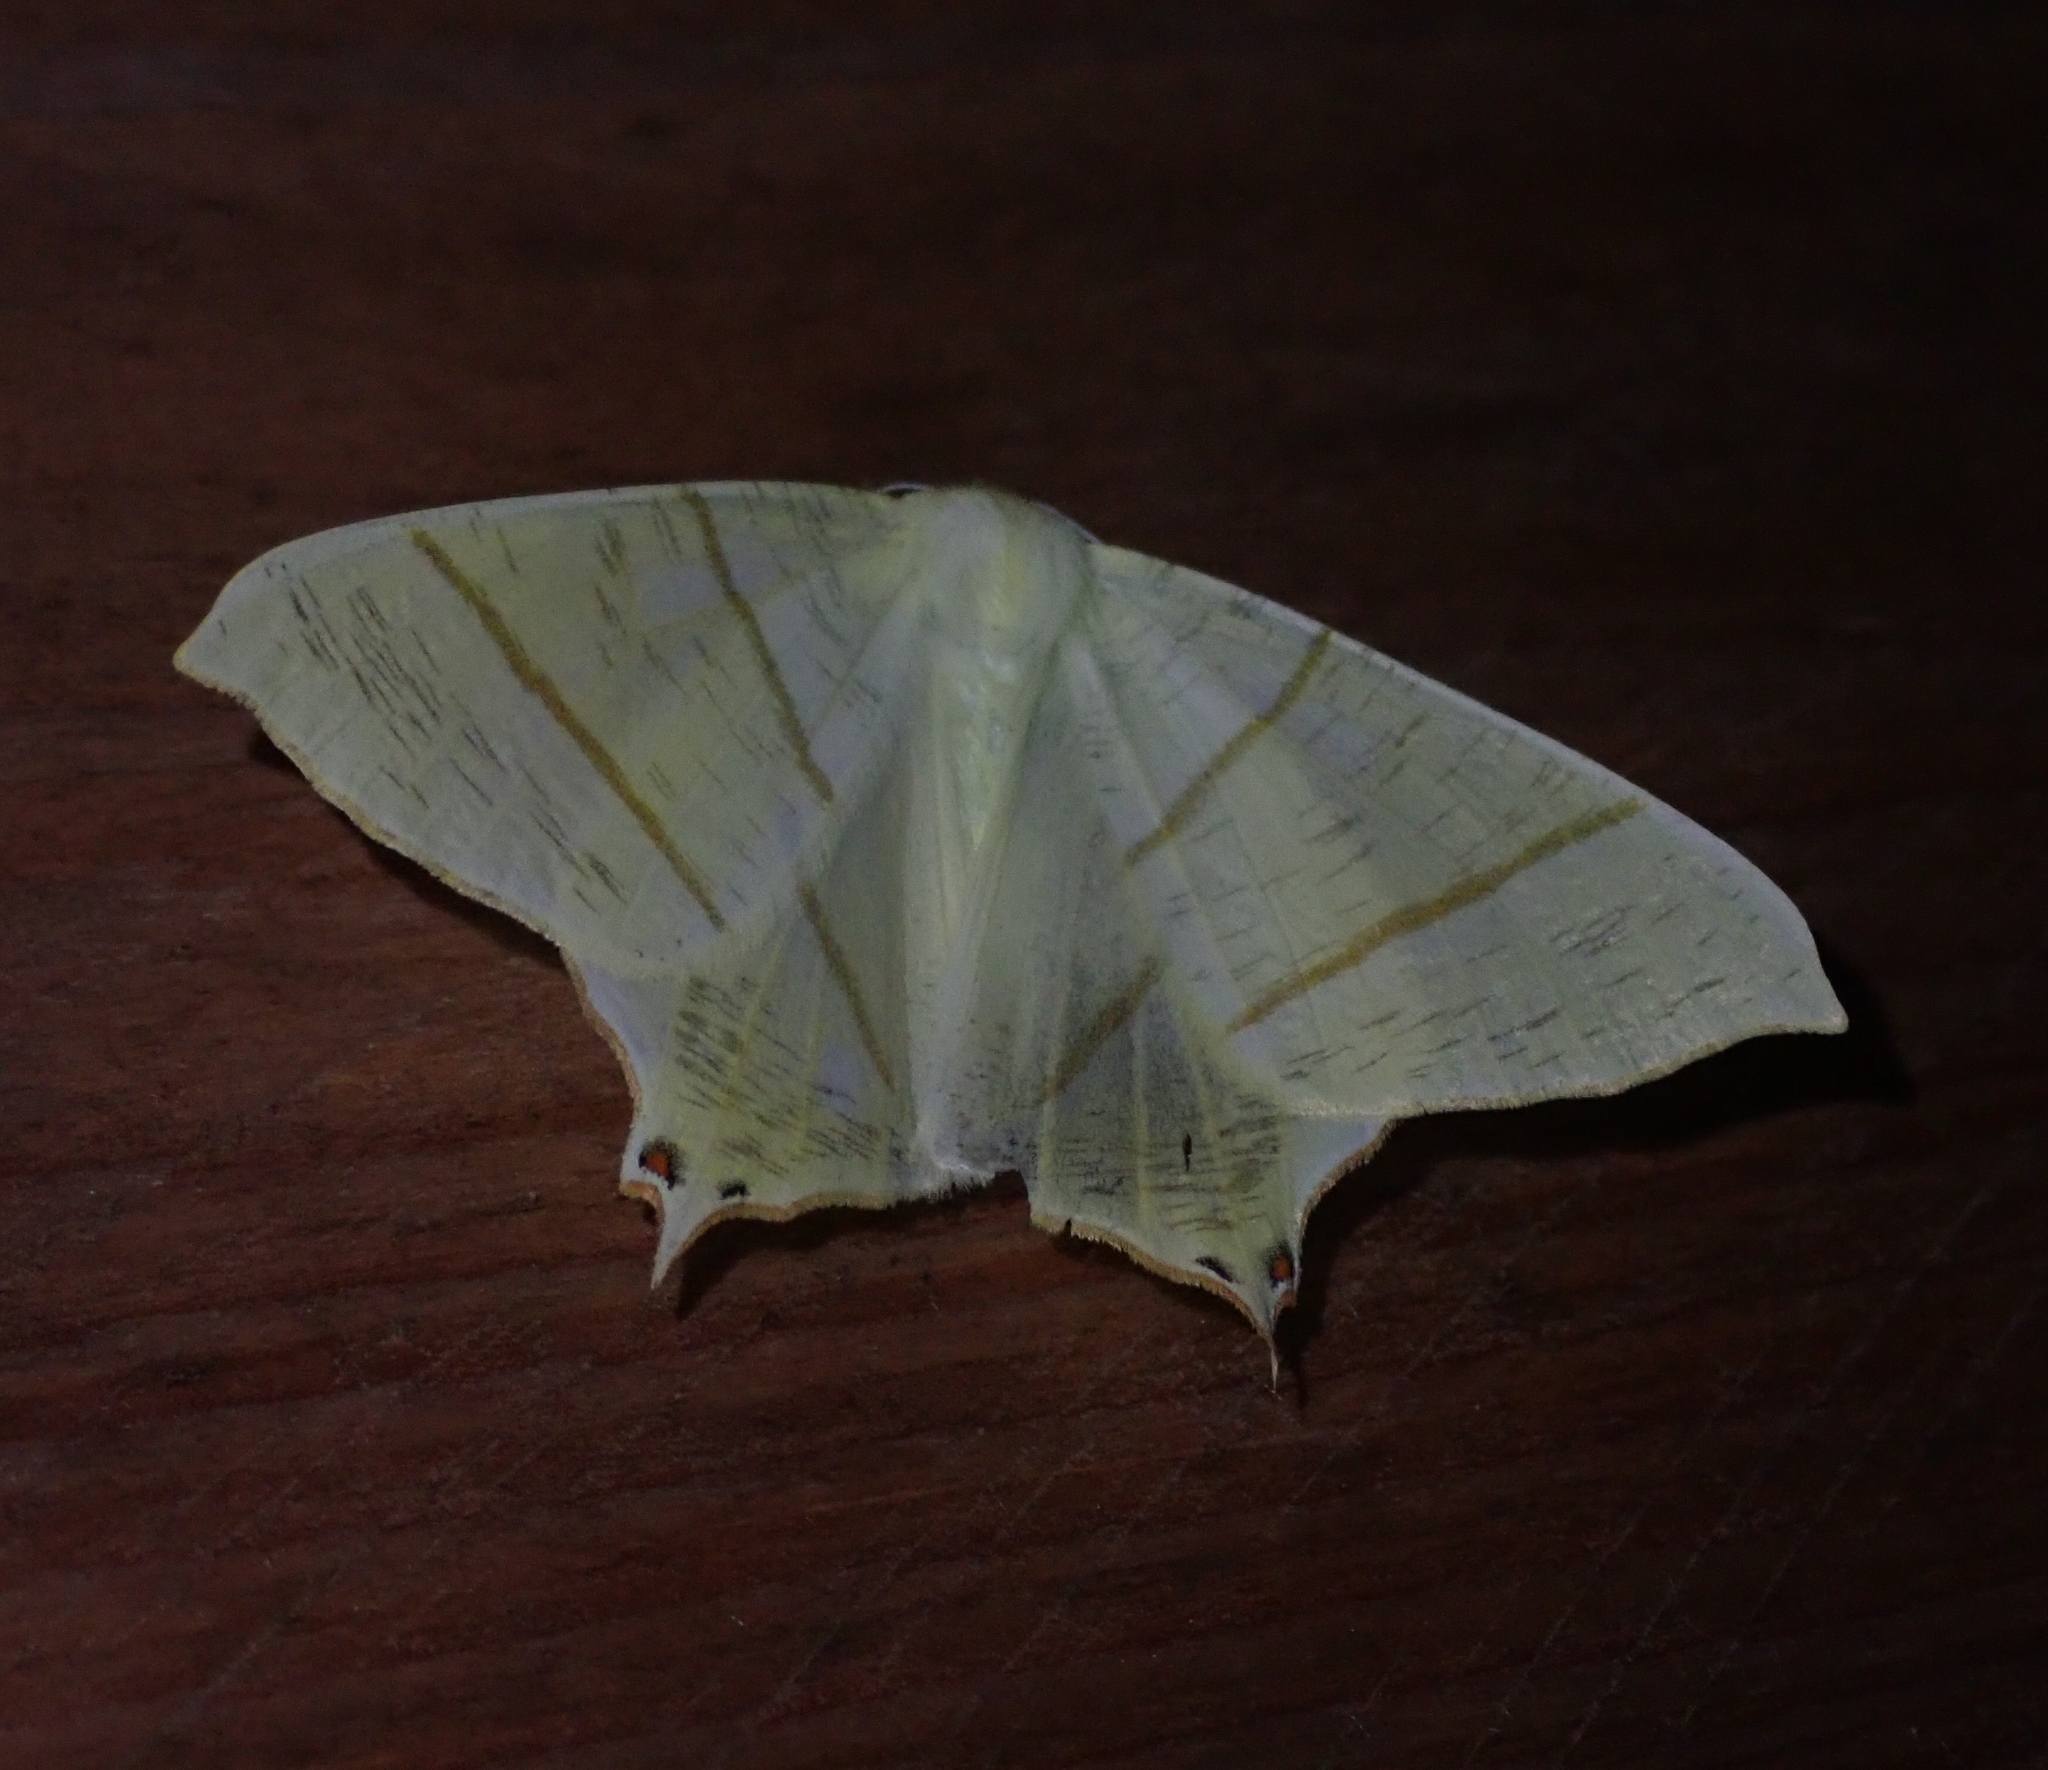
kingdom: Animalia
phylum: Arthropoda
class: Insecta
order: Lepidoptera
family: Geometridae
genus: Ourapteryx
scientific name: Ourapteryx sambucaria
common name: Swallow-tailed moth
